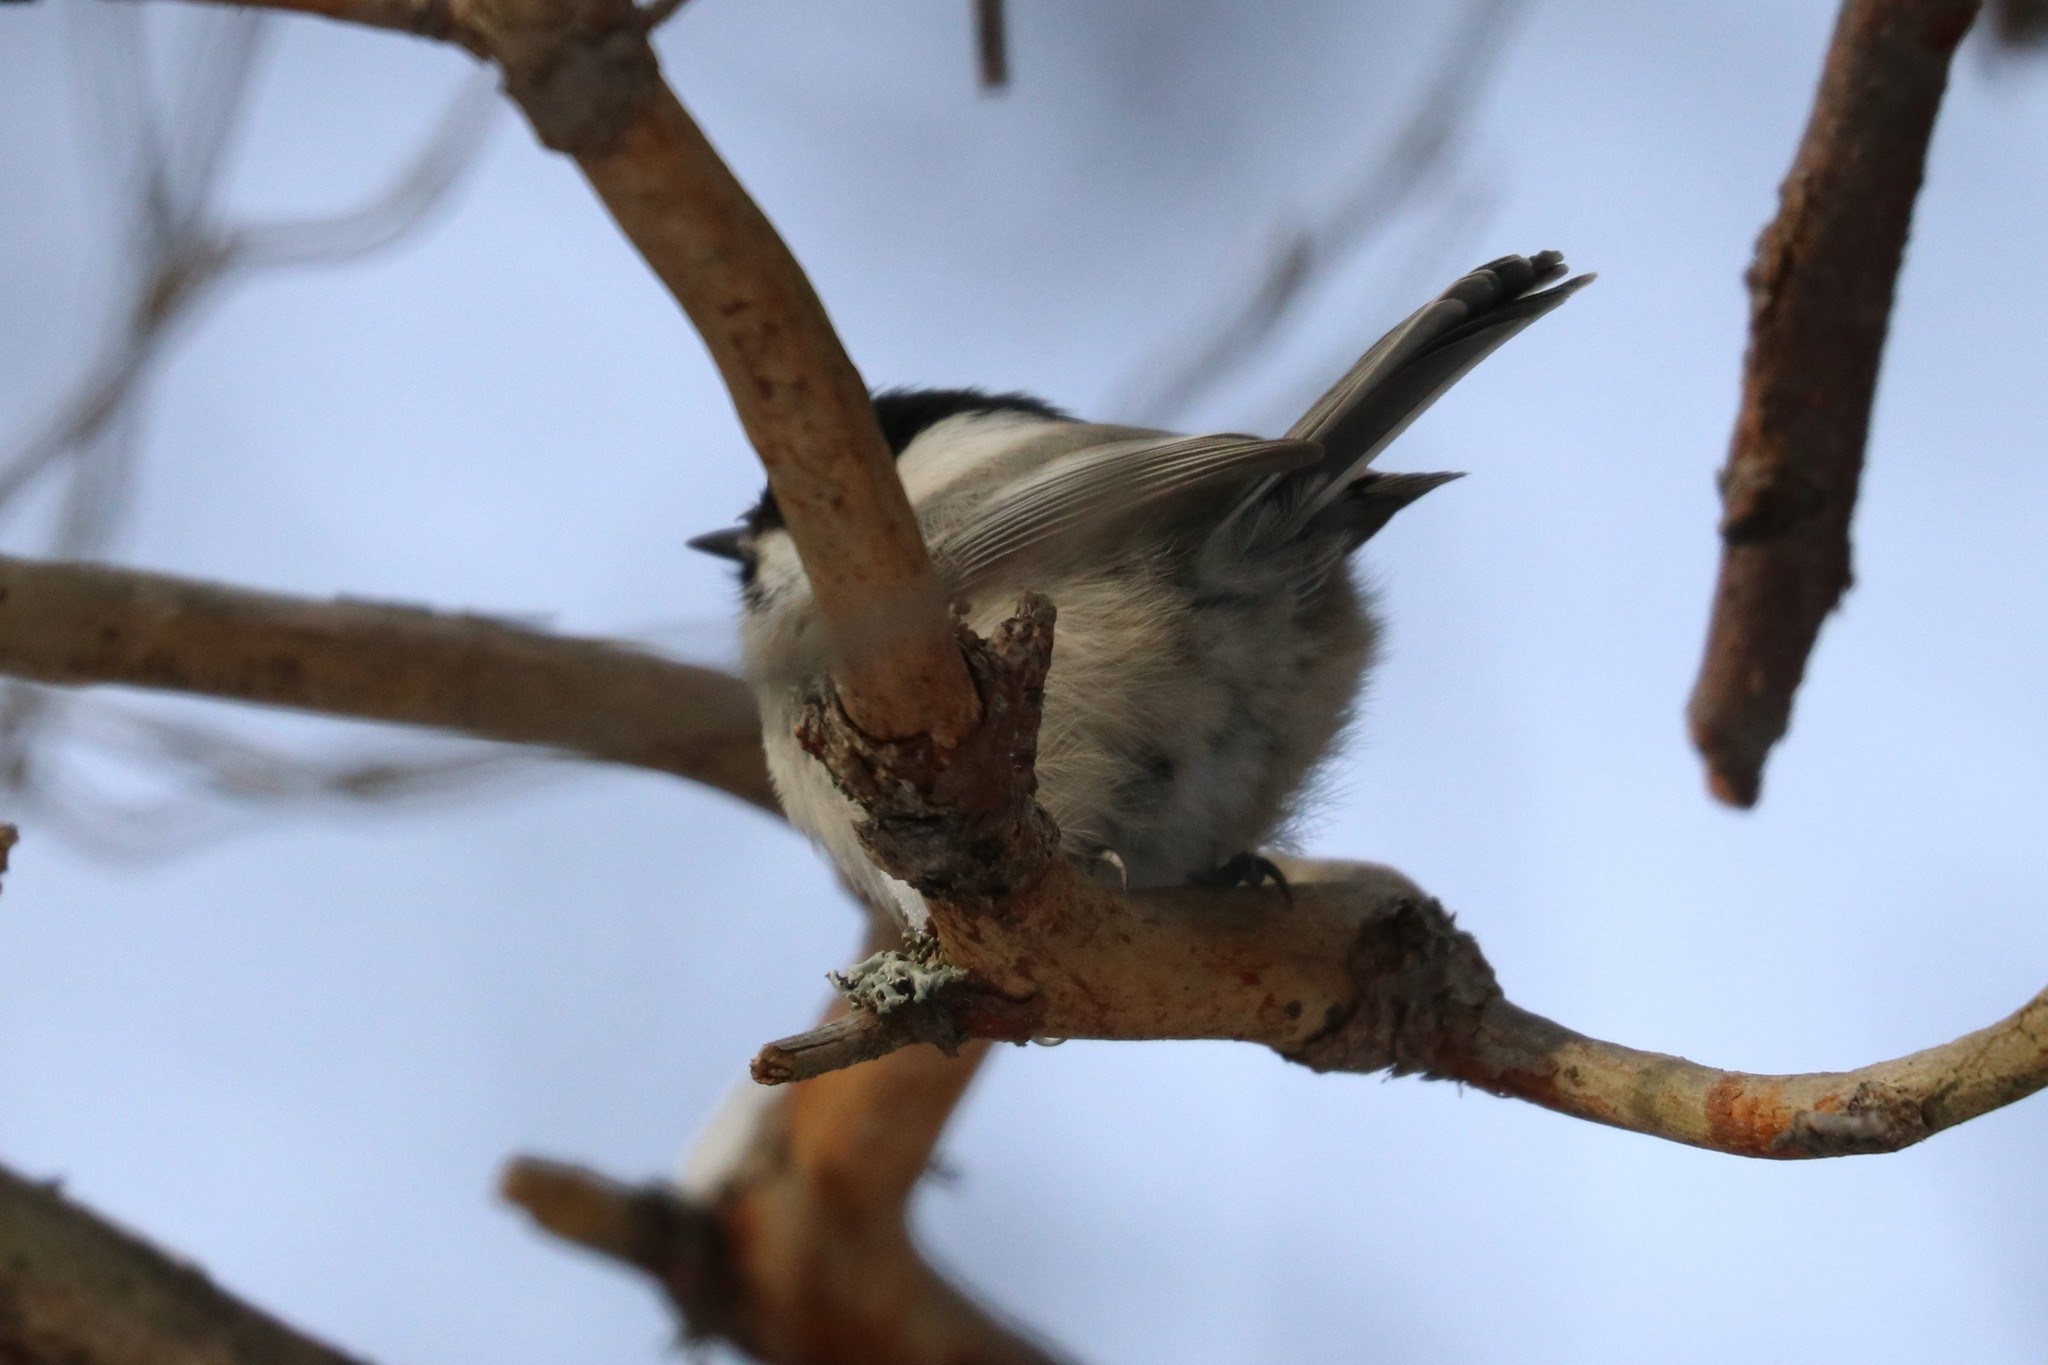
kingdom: Animalia
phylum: Chordata
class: Aves
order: Passeriformes
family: Paridae
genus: Poecile
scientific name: Poecile montanus
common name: Willow tit
